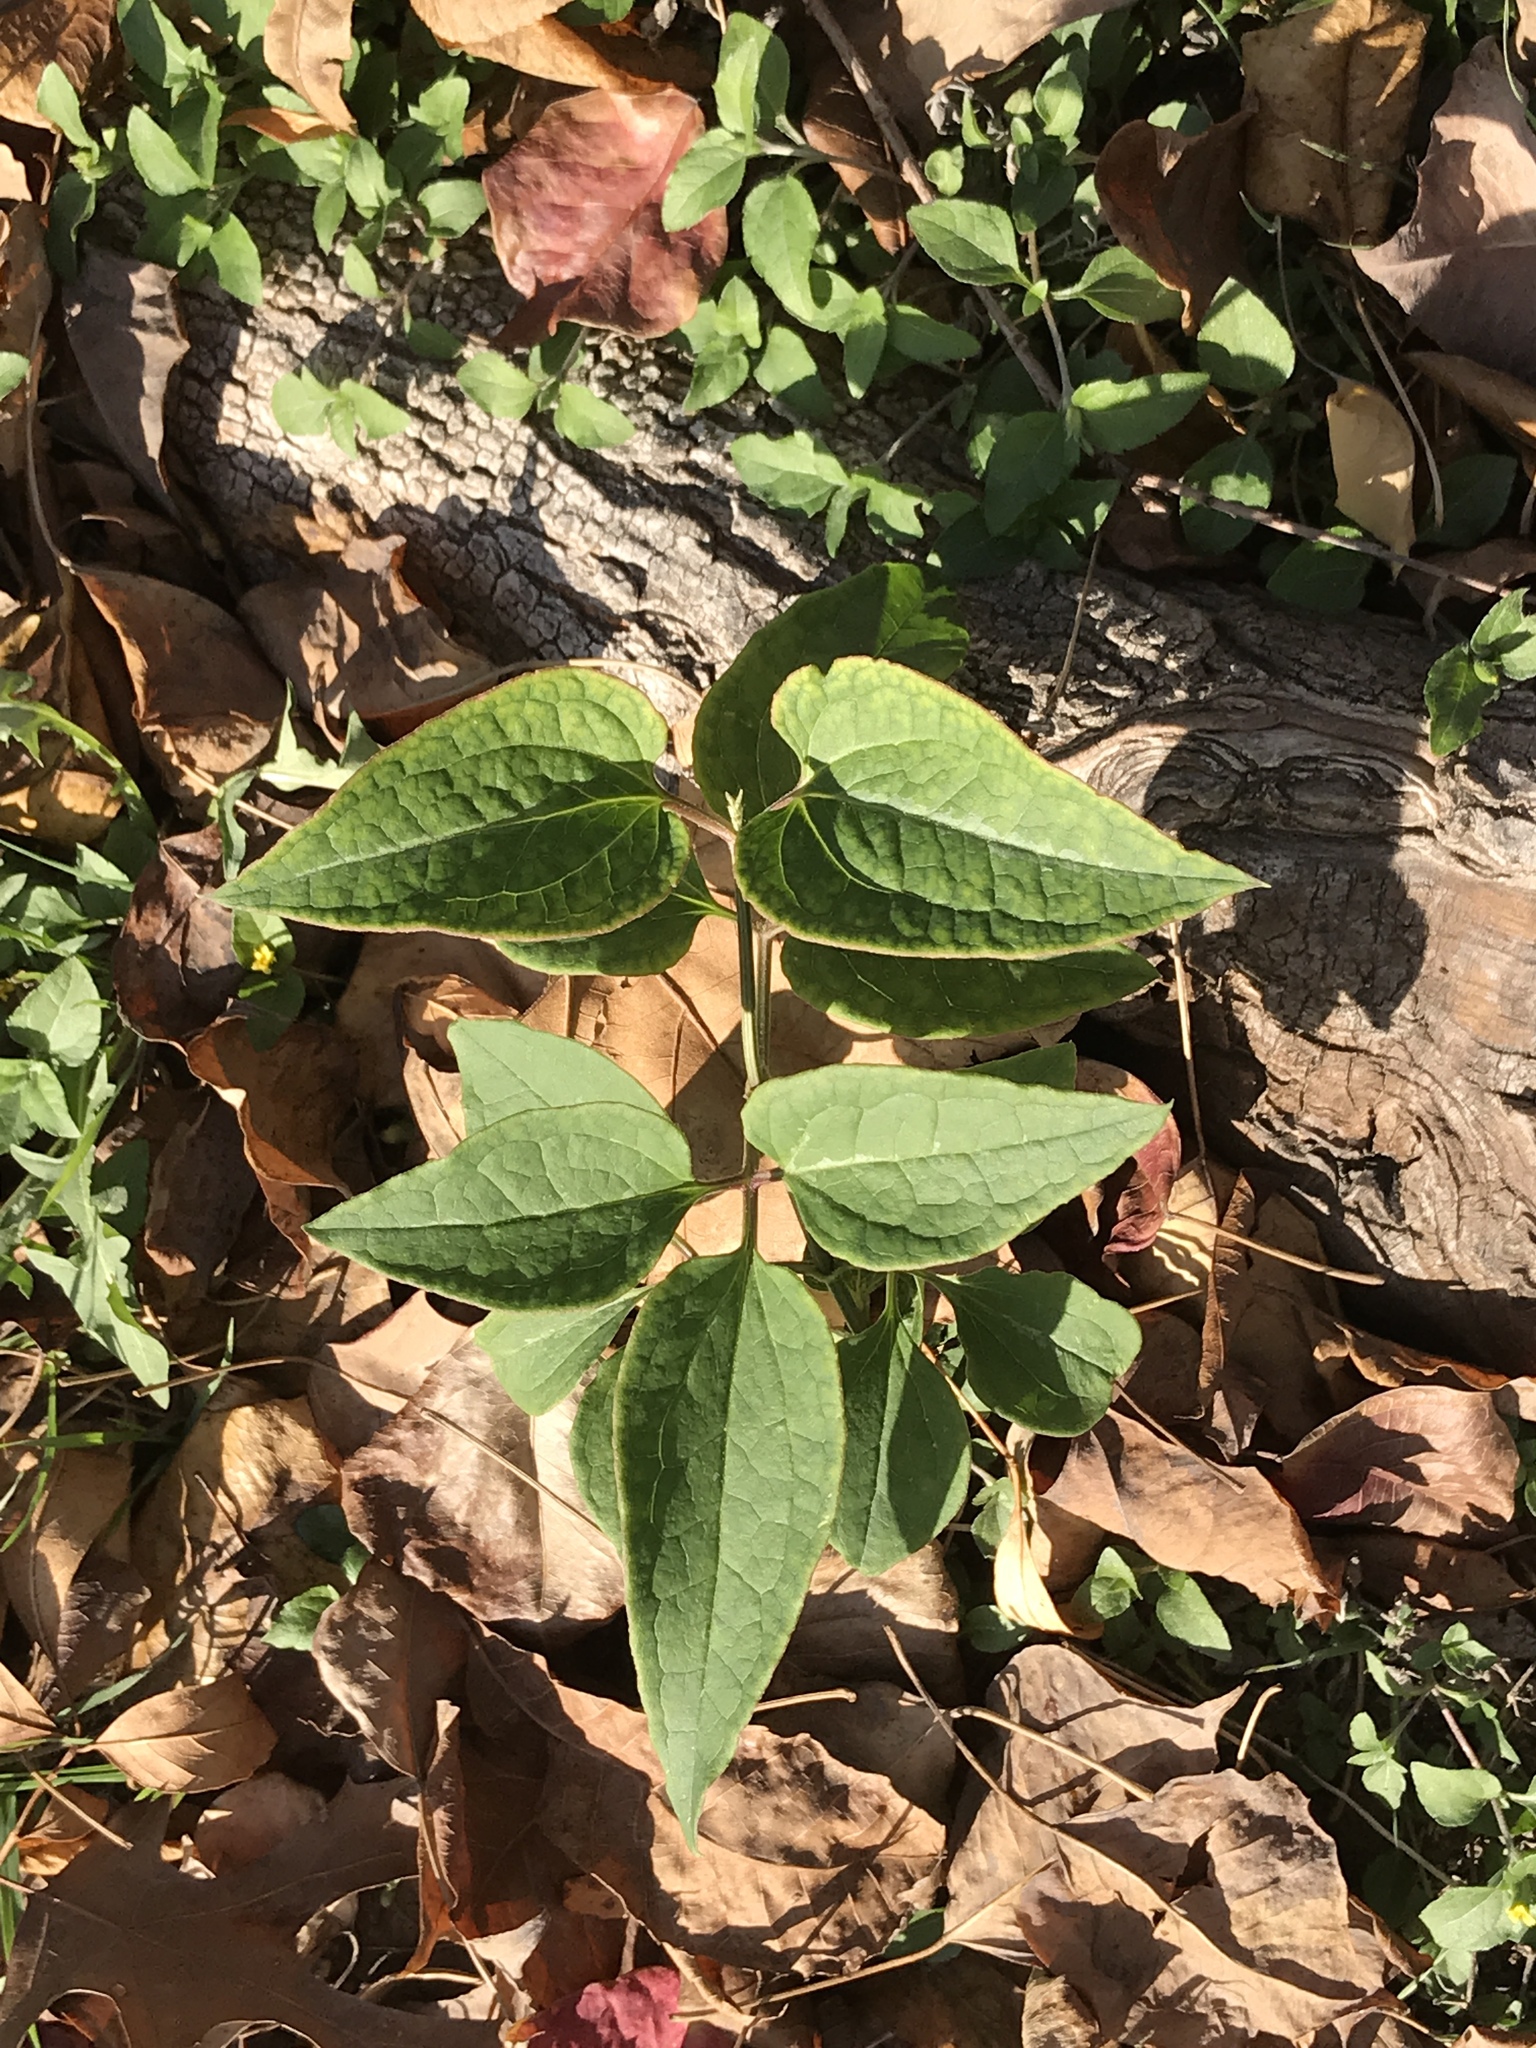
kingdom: Plantae
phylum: Tracheophyta
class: Magnoliopsida
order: Ranunculales
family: Ranunculaceae
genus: Clematis
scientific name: Clematis terniflora
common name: Sweet autumn clematis
